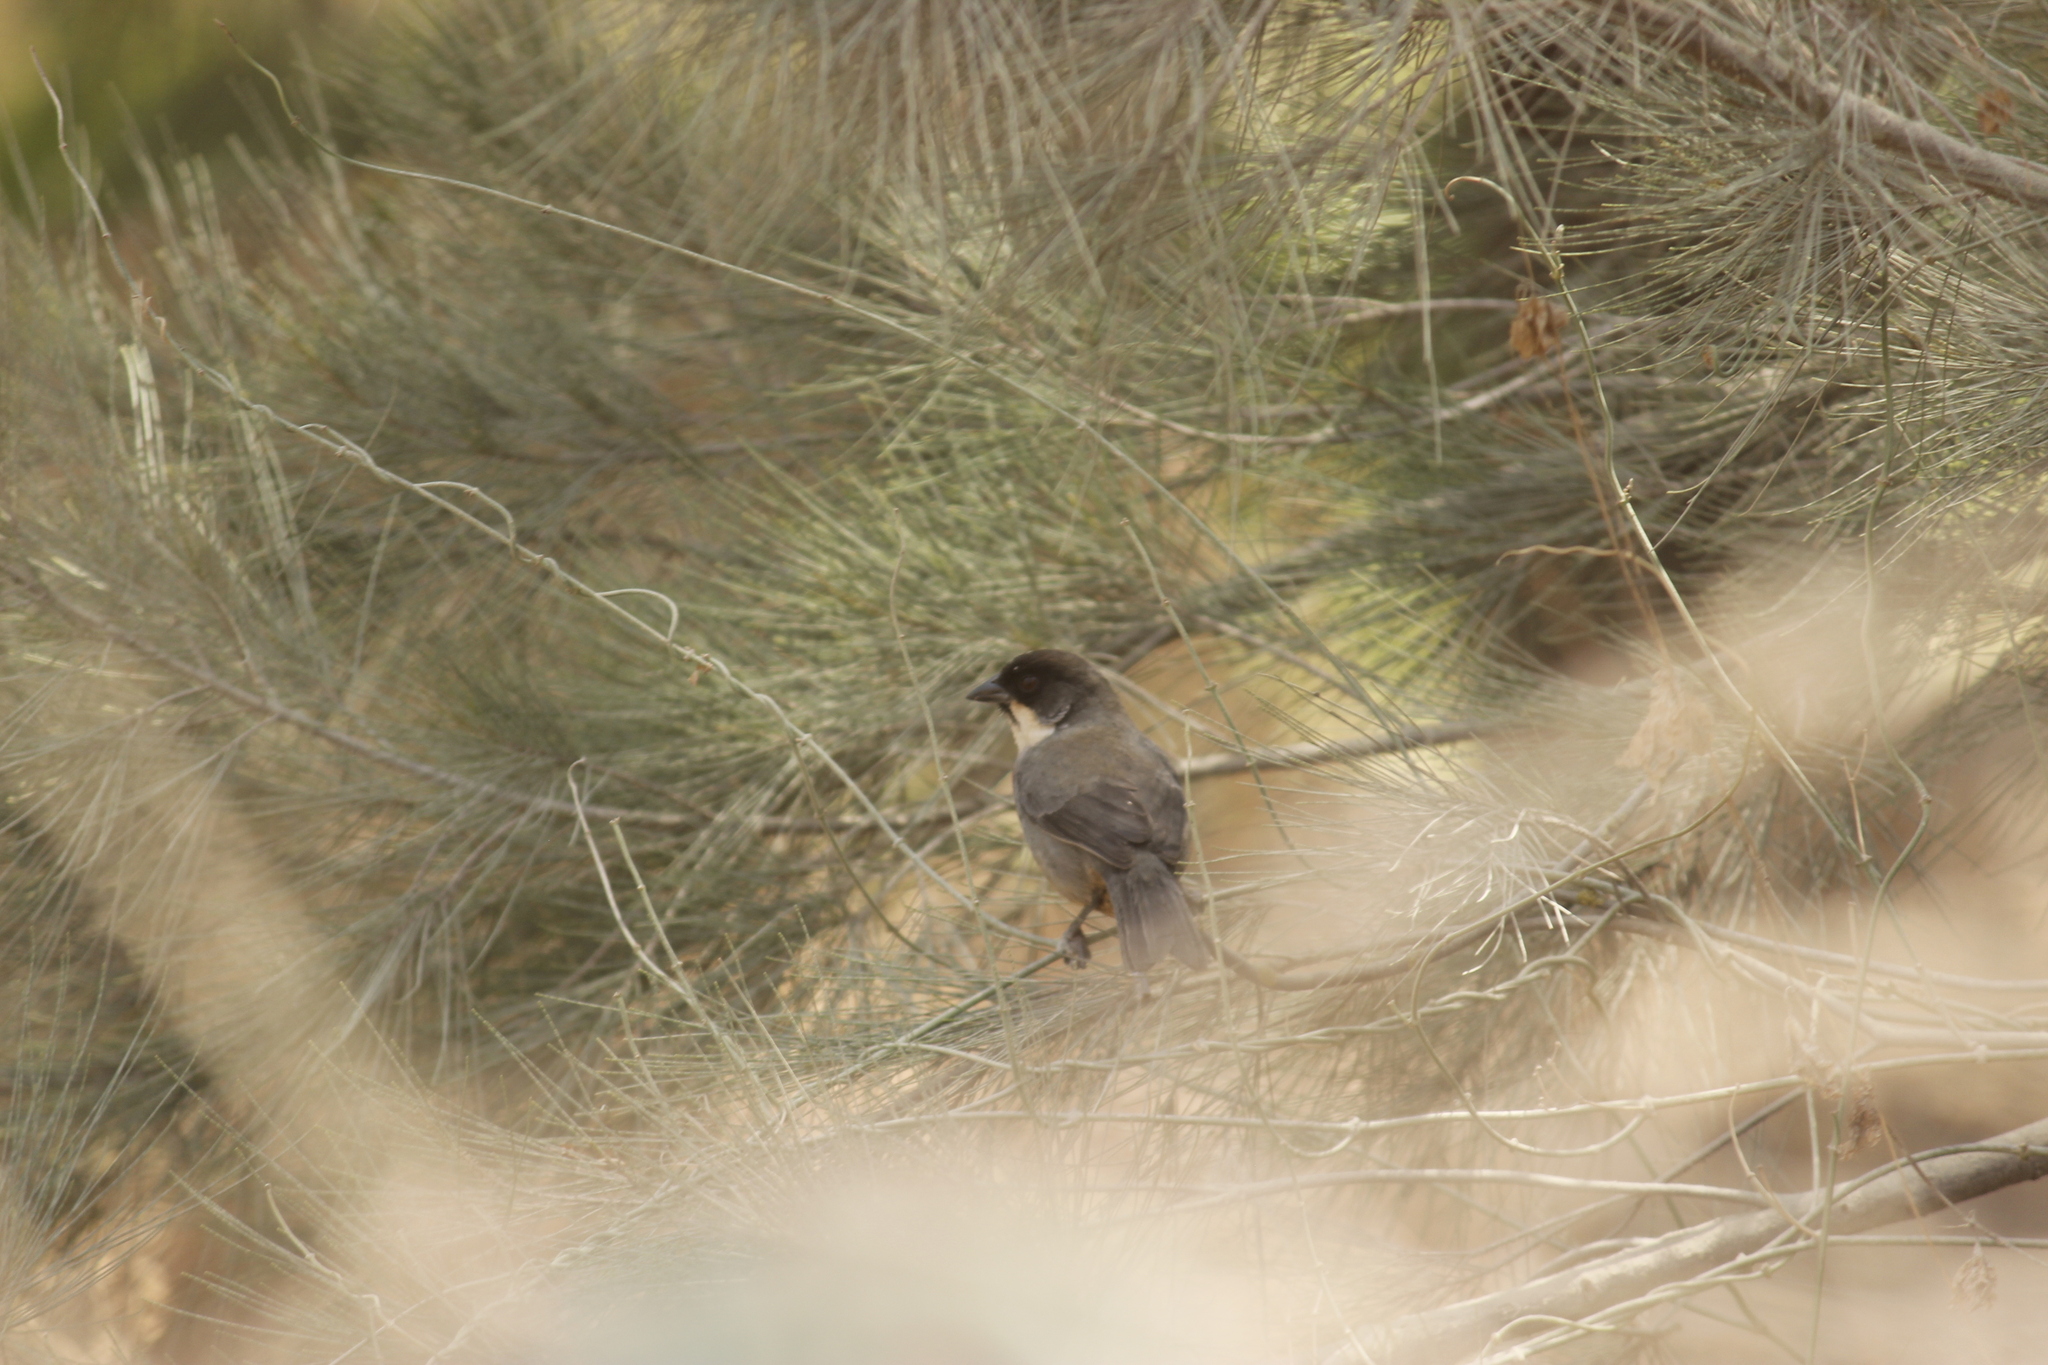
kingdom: Animalia
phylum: Chordata
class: Aves
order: Passeriformes
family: Passerellidae
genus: Atlapetes
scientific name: Atlapetes nationi
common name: Rusty-bellied brushfinch
